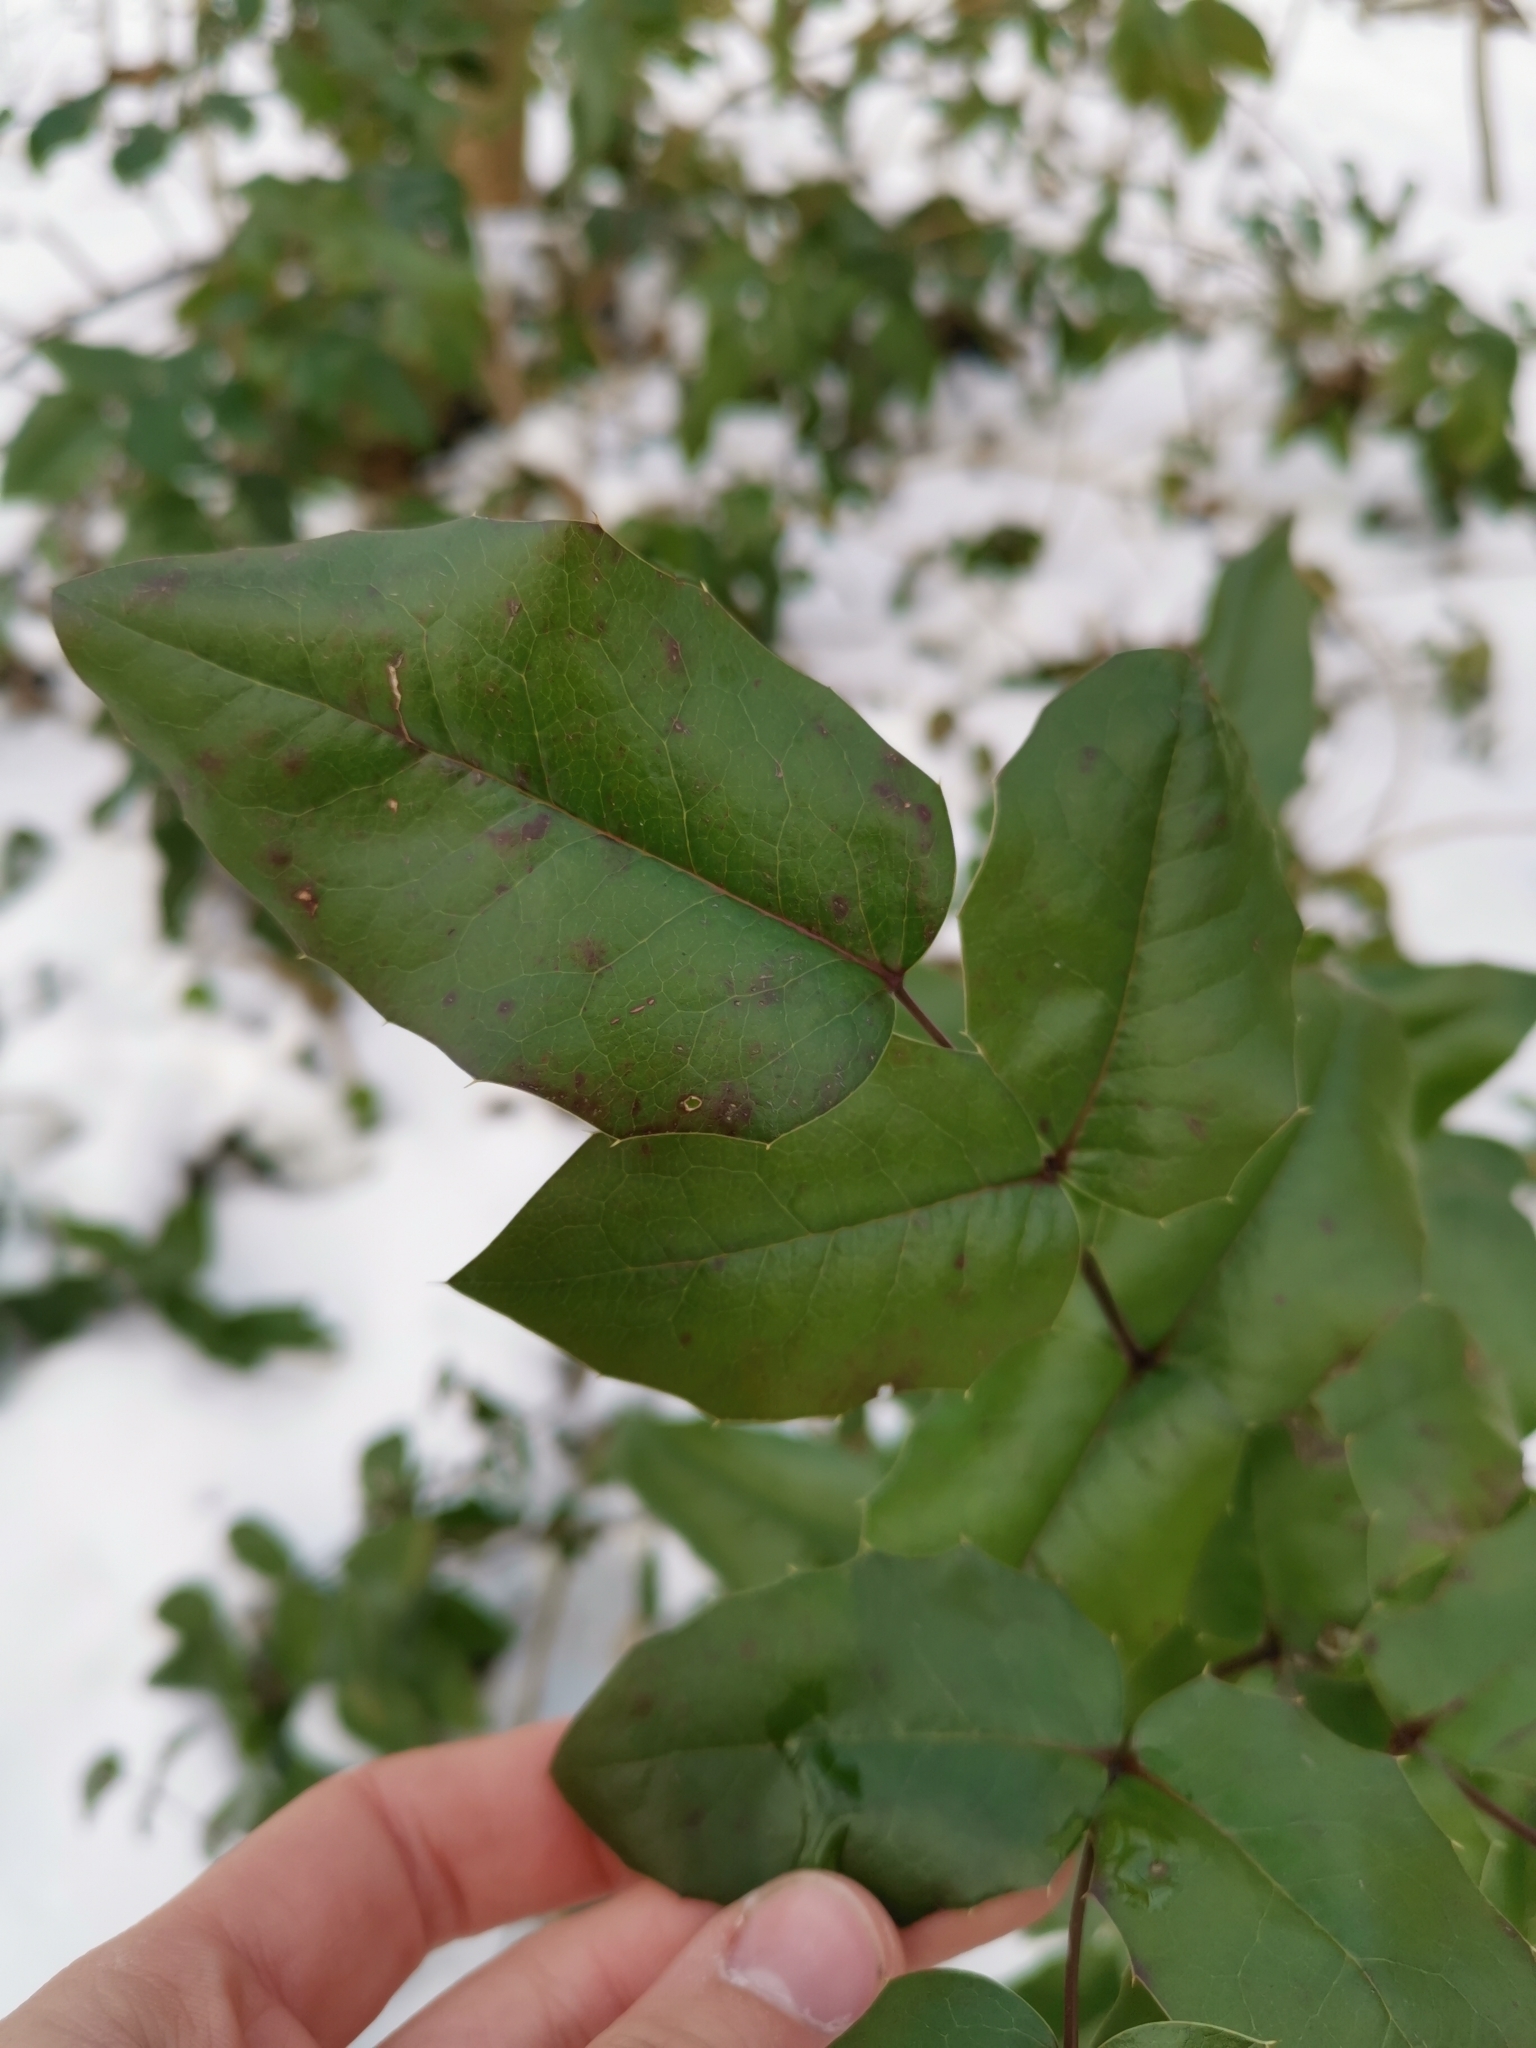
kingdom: Plantae
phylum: Tracheophyta
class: Magnoliopsida
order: Ranunculales
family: Berberidaceae
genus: Mahonia
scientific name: Mahonia aquifolium
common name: Oregon-grape
